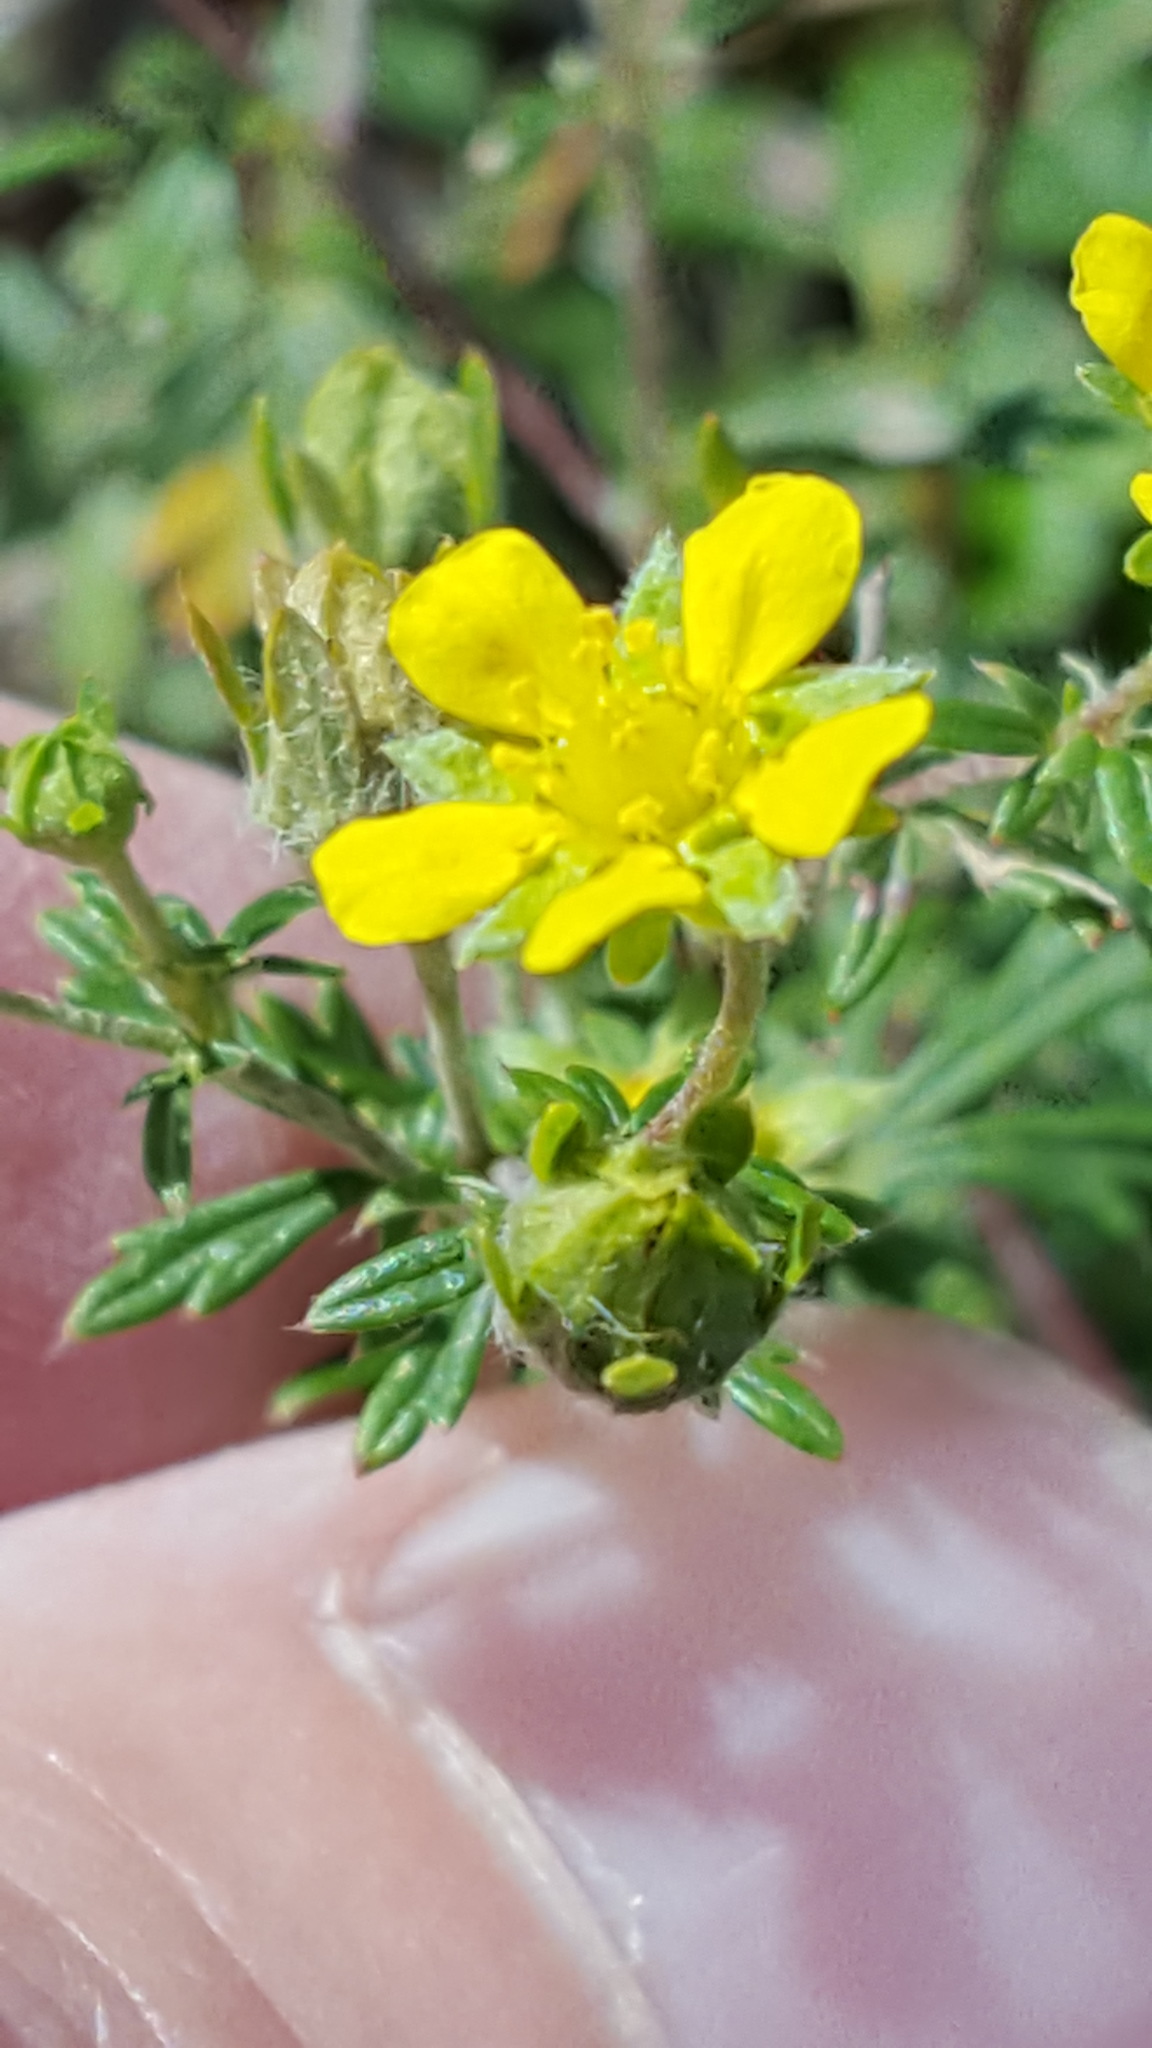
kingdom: Plantae
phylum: Tracheophyta
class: Magnoliopsida
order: Rosales
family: Rosaceae
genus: Potentilla
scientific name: Potentilla simplex
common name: Old field cinquefoil
